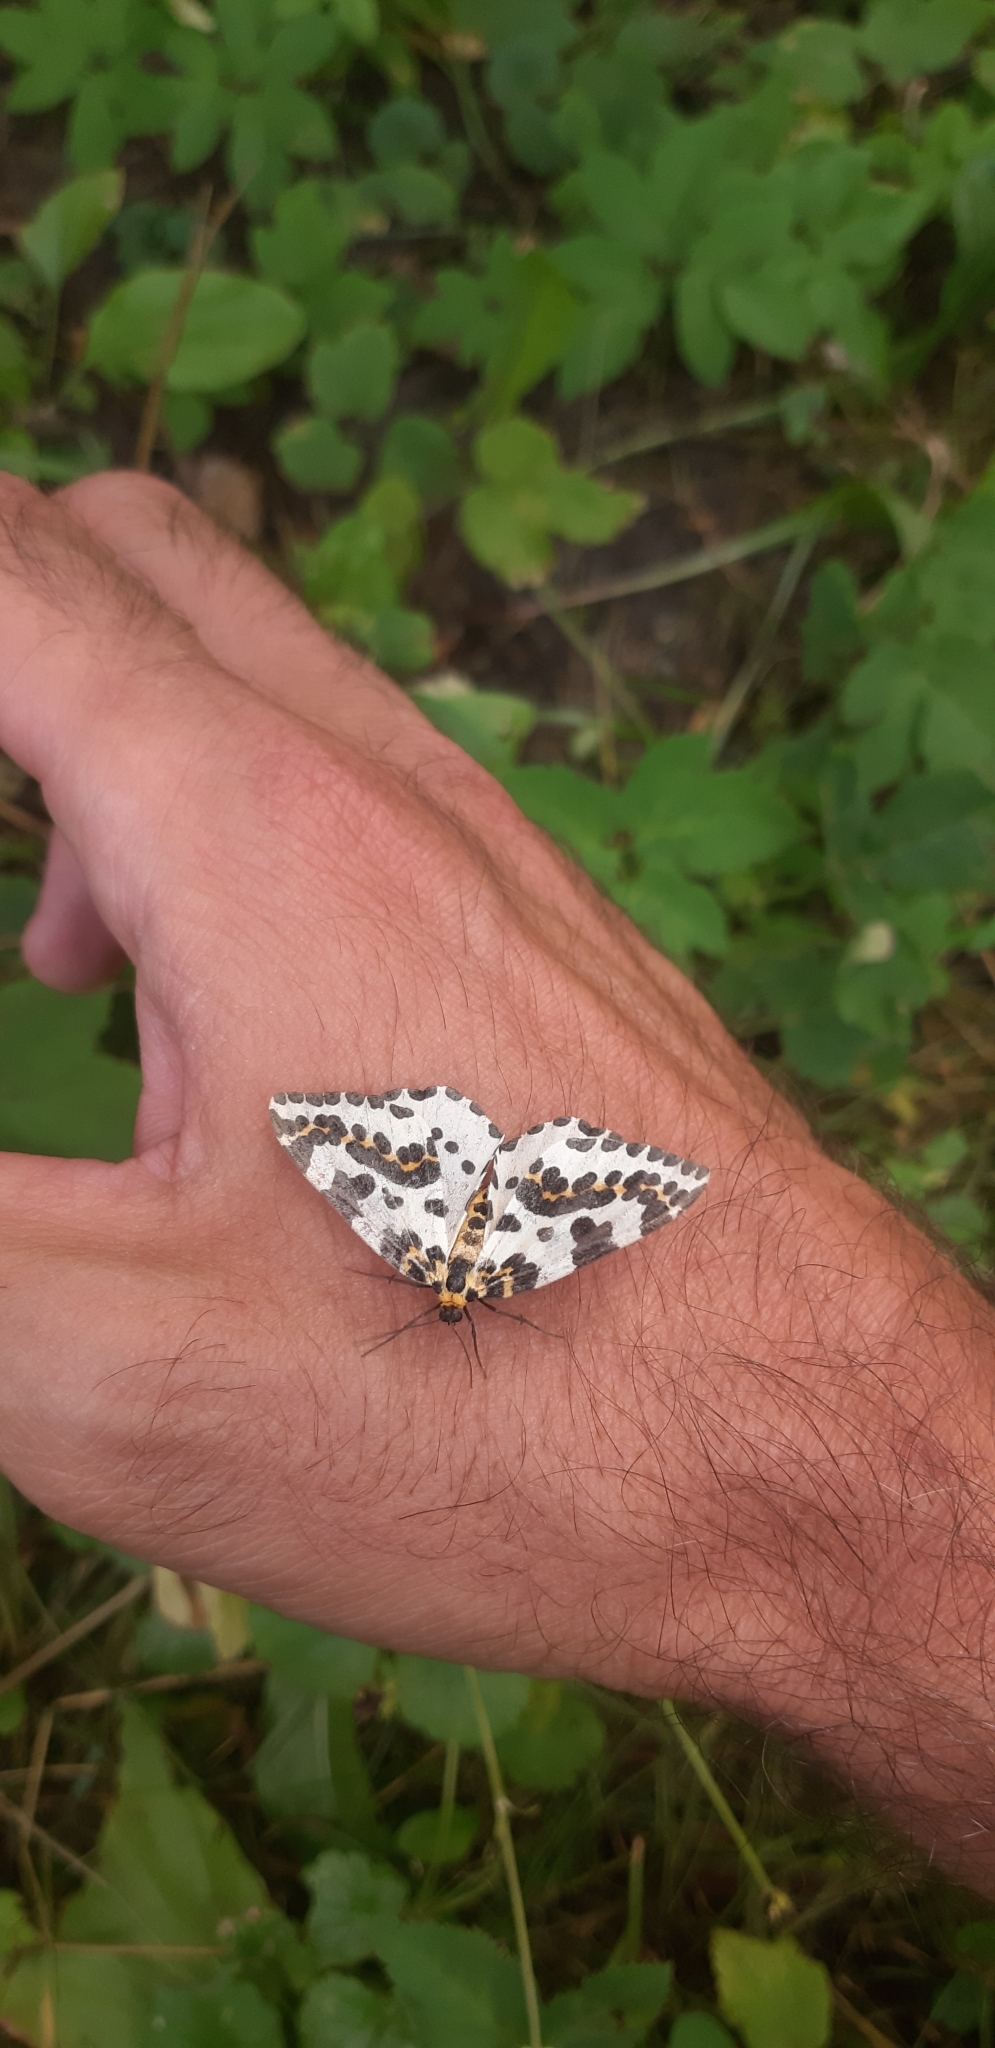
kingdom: Animalia
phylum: Arthropoda
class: Insecta
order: Lepidoptera
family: Geometridae
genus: Abraxas
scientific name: Abraxas grossulariata
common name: Magpie
